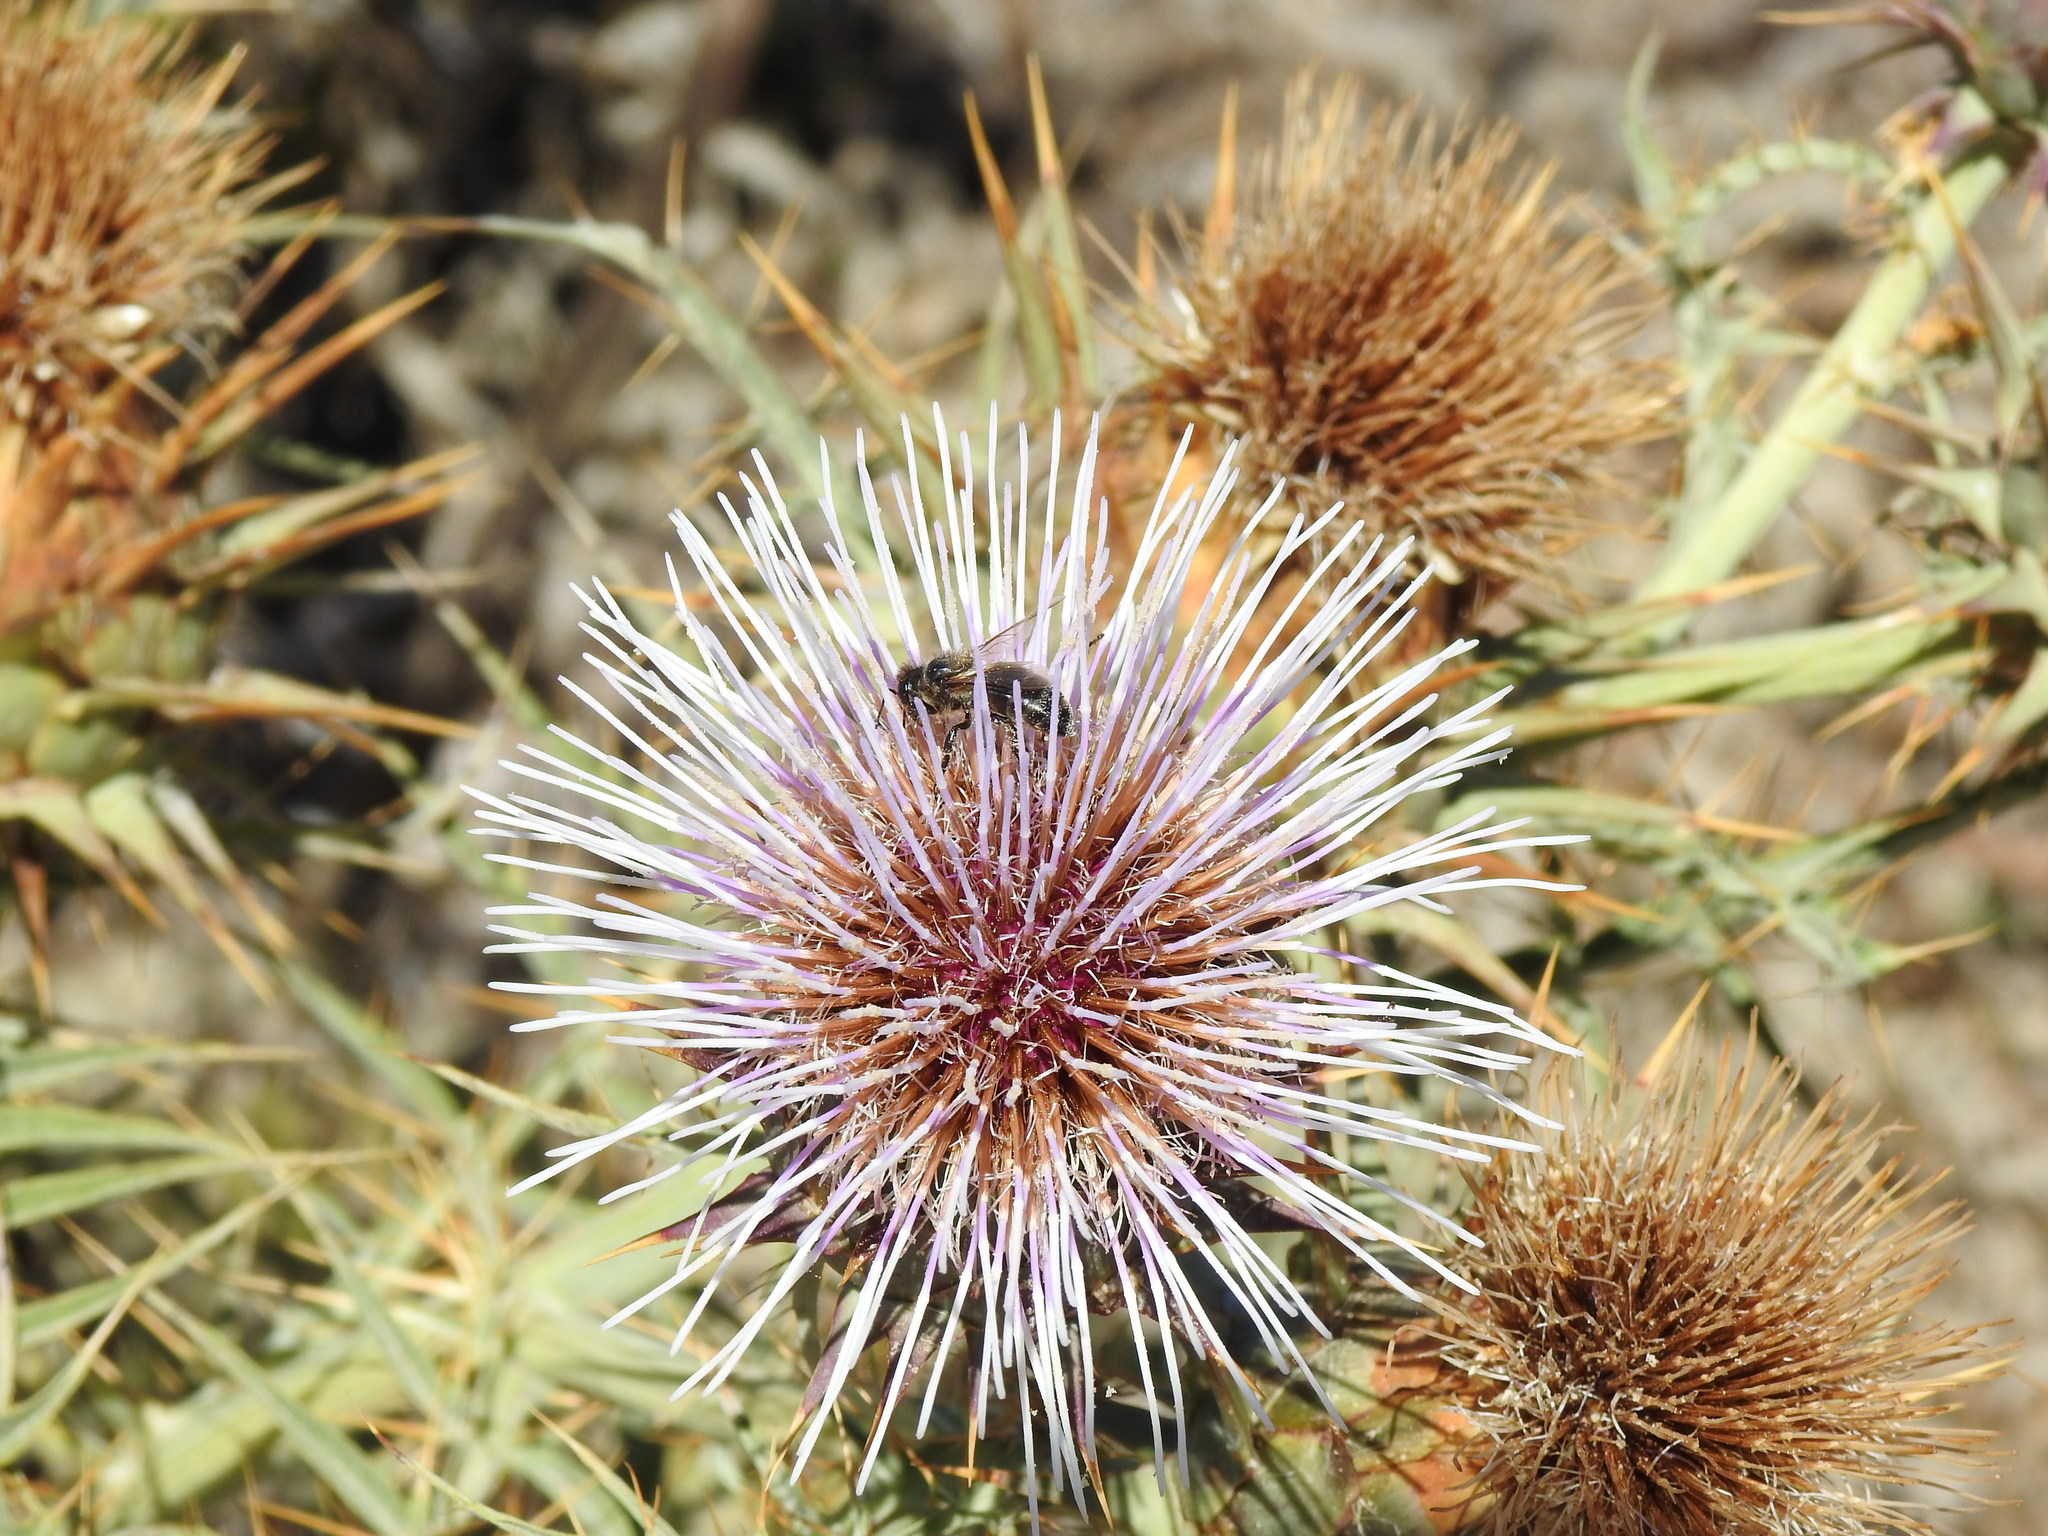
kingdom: Animalia
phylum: Arthropoda
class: Insecta
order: Hymenoptera
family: Apidae
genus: Apis
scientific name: Apis mellifera
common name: Honey bee
